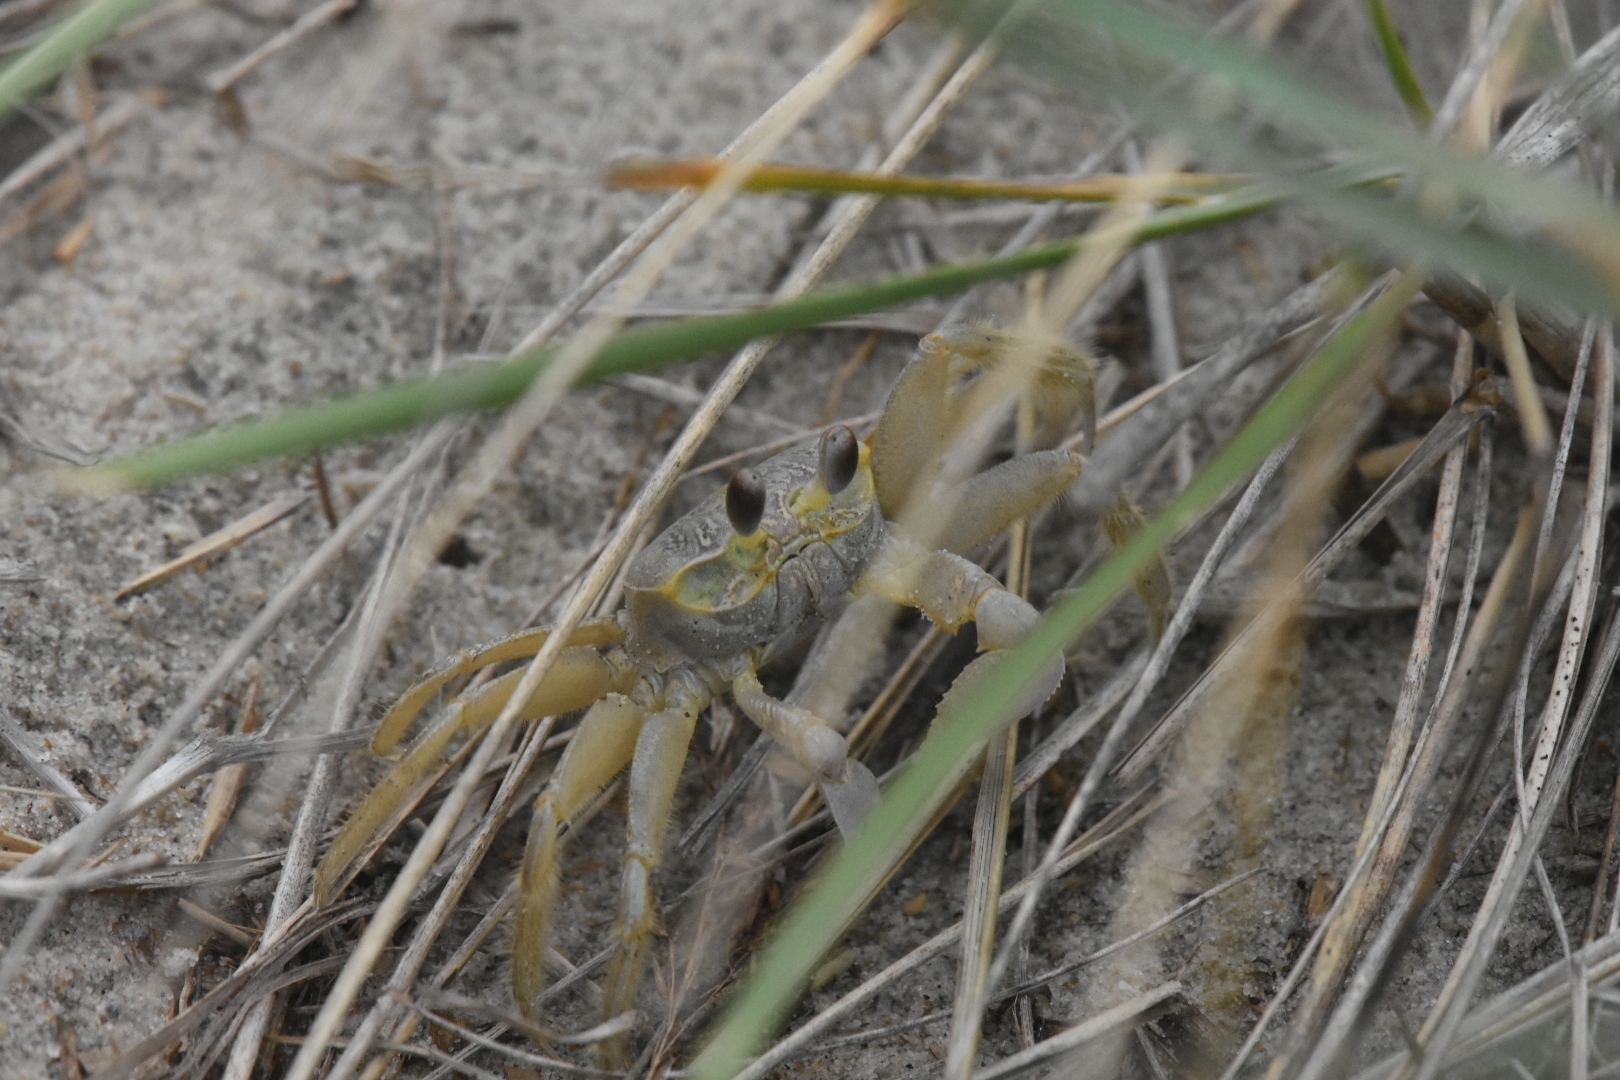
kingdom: Animalia
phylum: Arthropoda
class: Malacostraca
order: Decapoda
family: Ocypodidae
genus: Ocypode
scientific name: Ocypode quadrata
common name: Ghost crab
